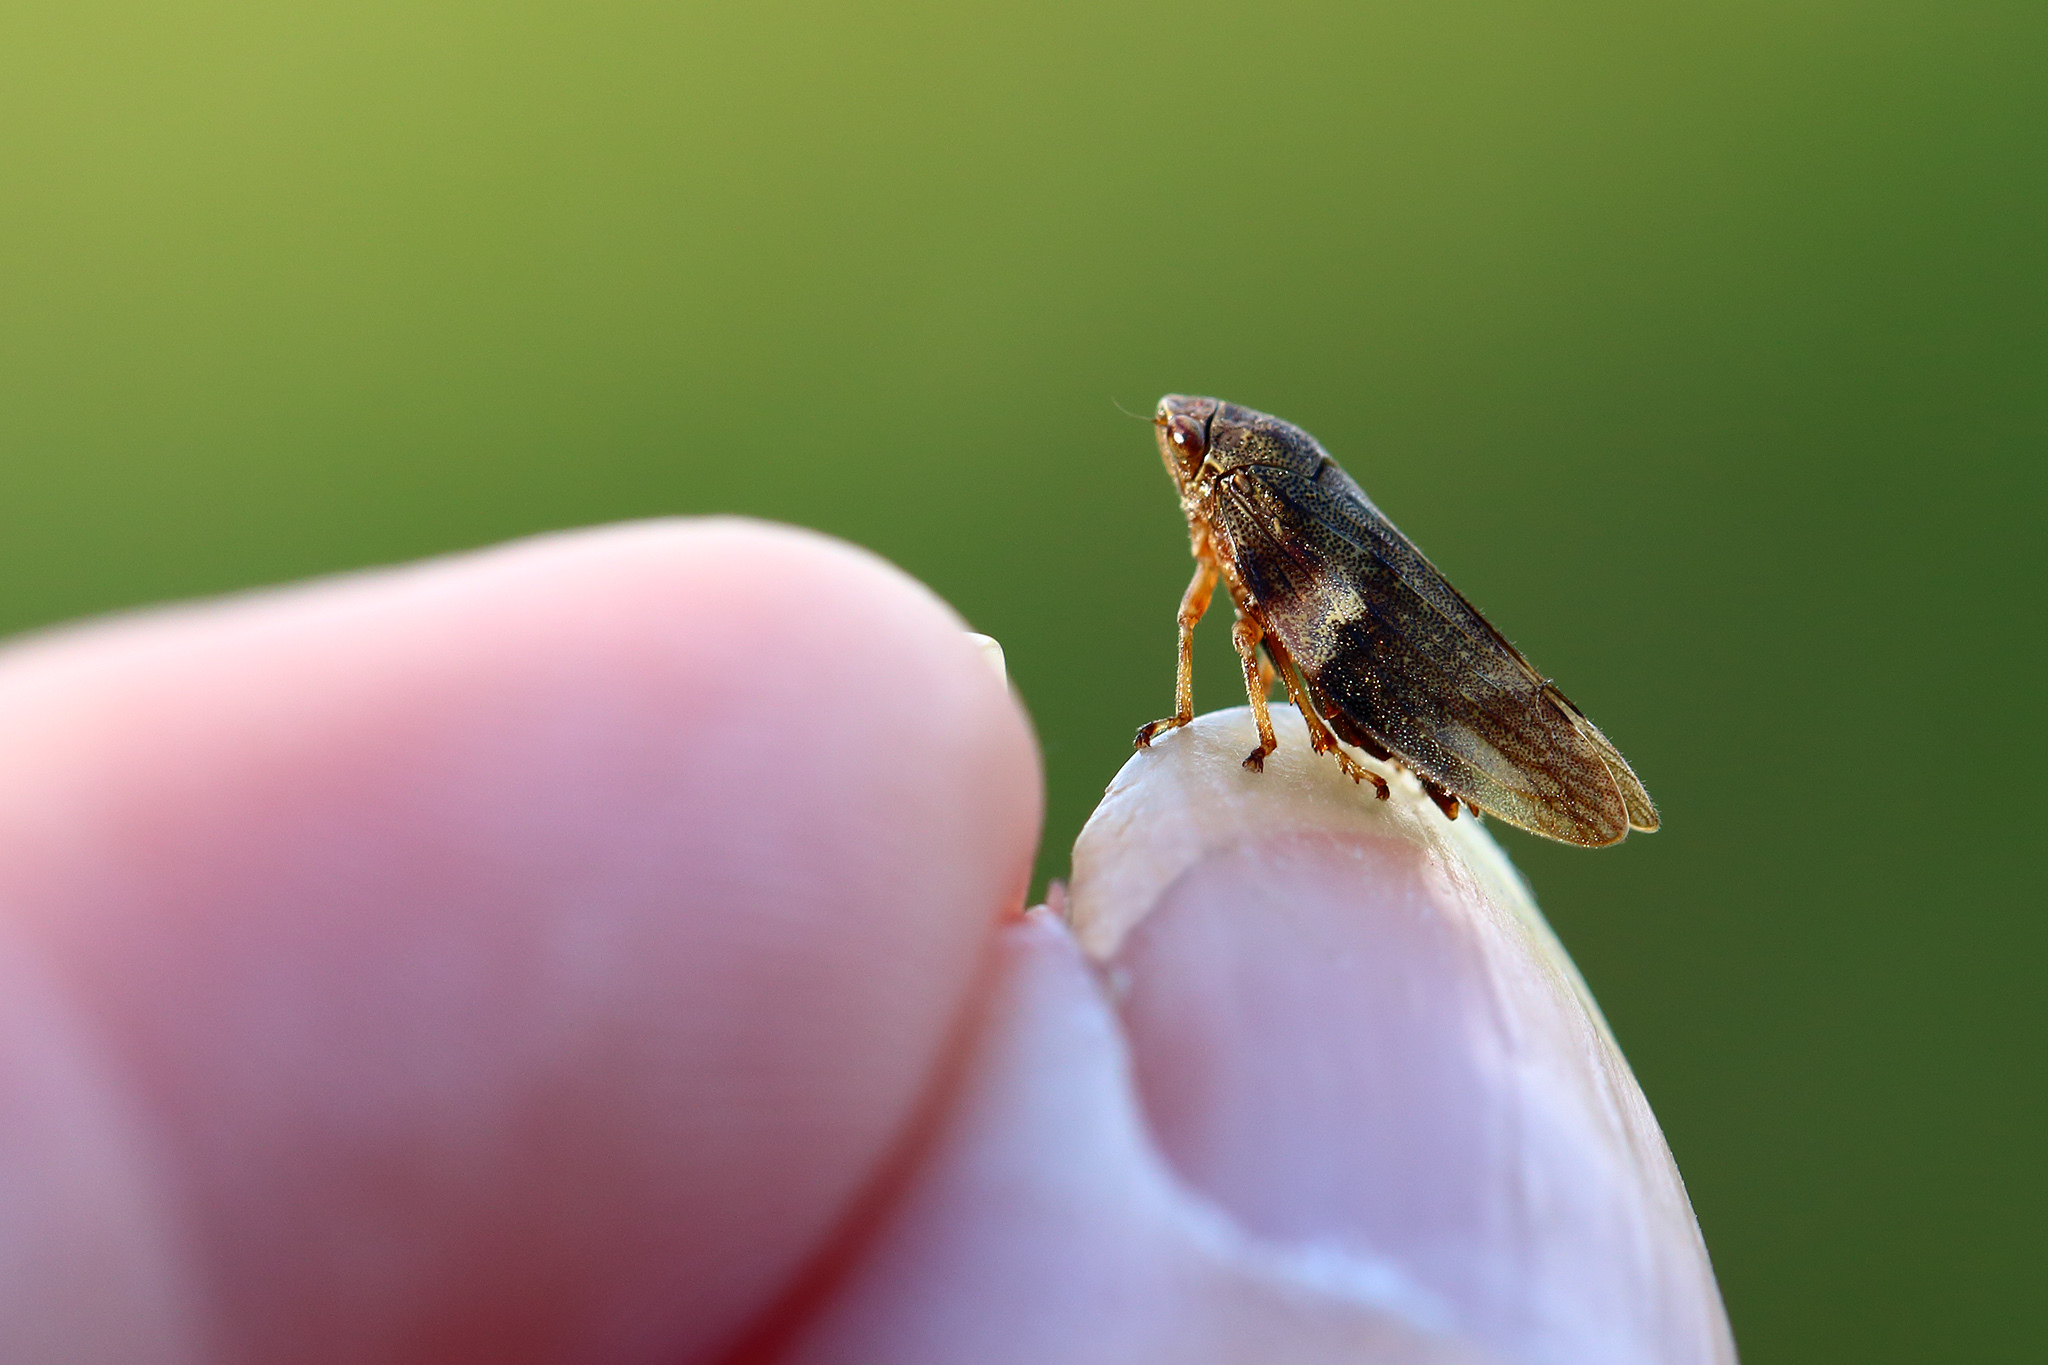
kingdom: Animalia
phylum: Arthropoda
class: Insecta
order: Hemiptera
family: Aphrophoridae
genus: Aphrophora
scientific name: Aphrophora alni
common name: European alder spittlebug
